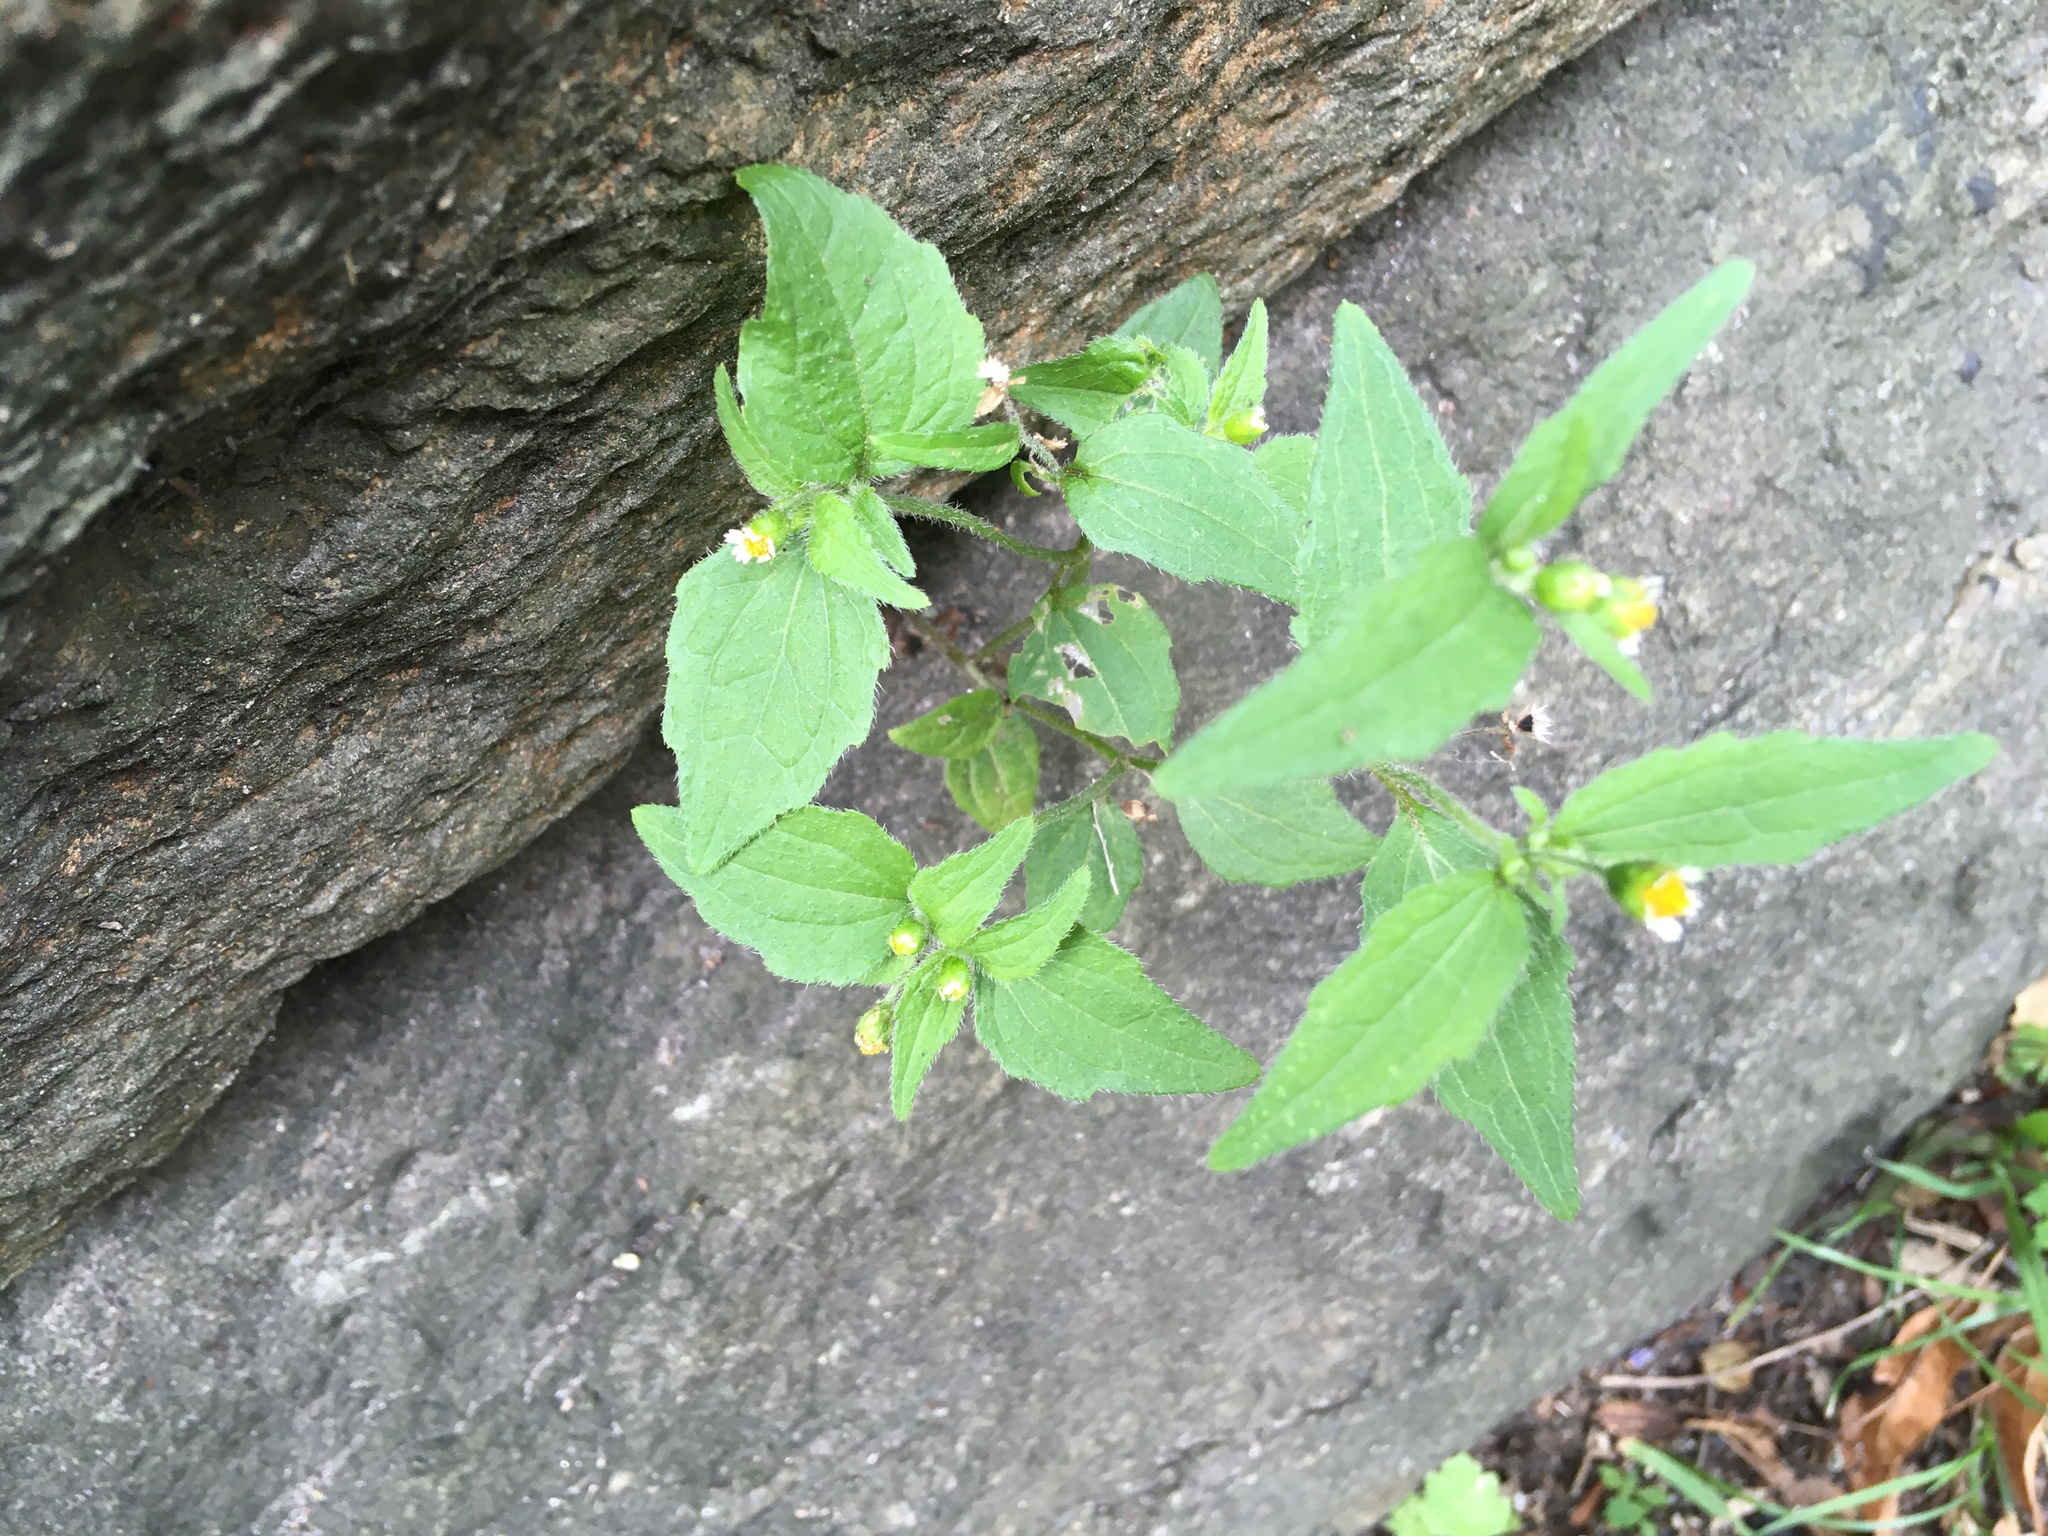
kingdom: Plantae
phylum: Tracheophyta
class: Magnoliopsida
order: Asterales
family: Asteraceae
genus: Galinsoga
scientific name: Galinsoga quadriradiata
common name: Shaggy soldier
